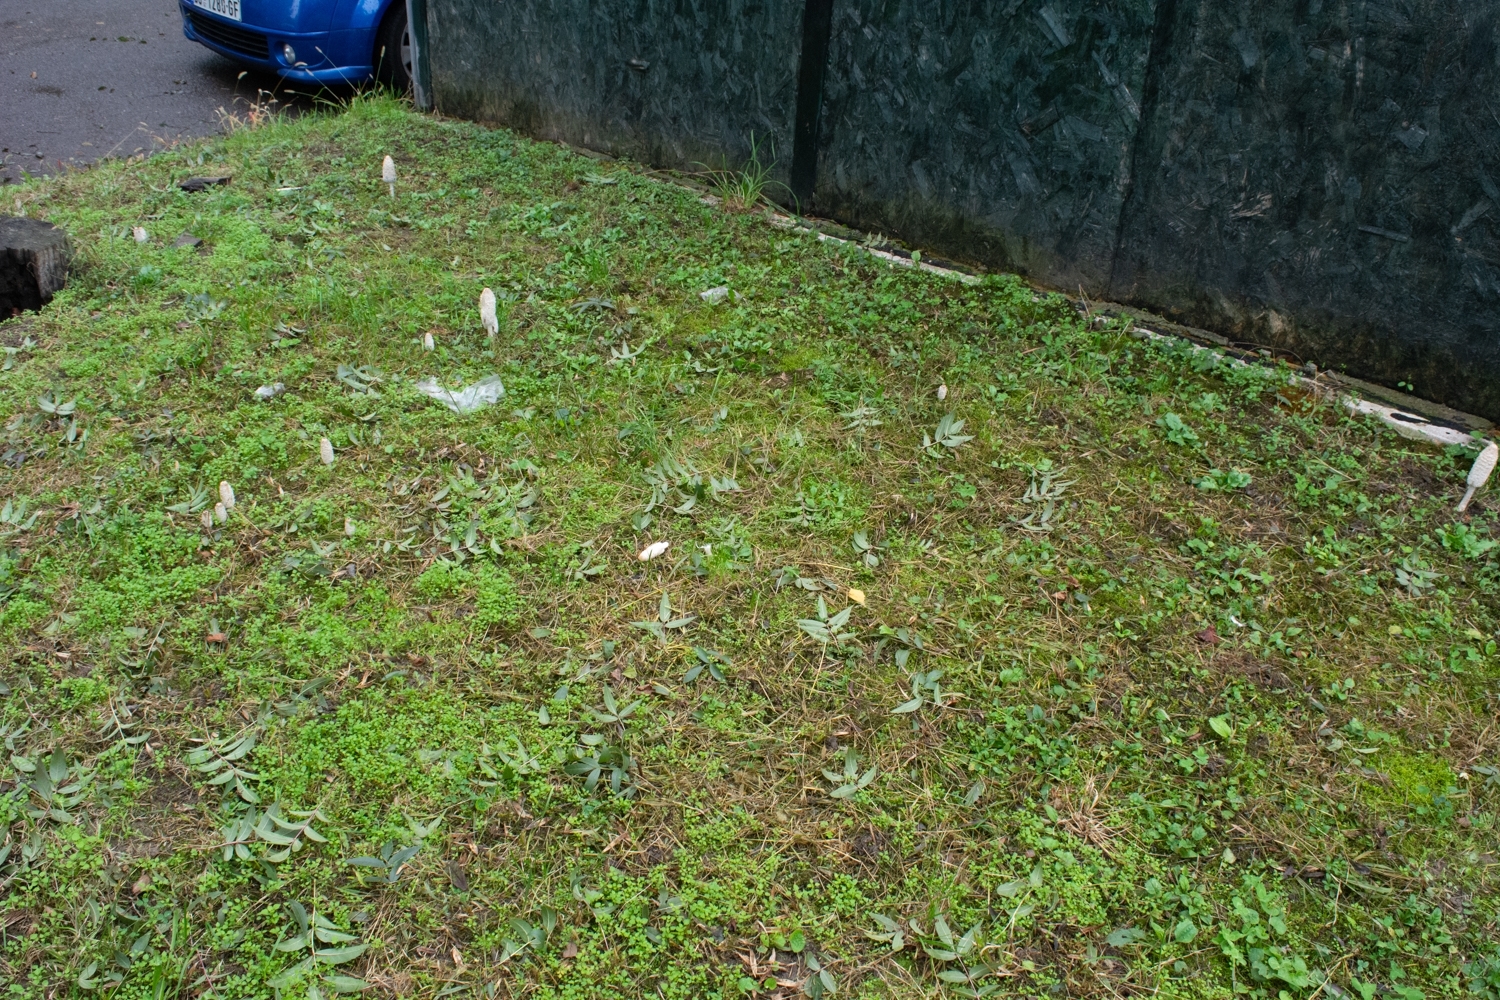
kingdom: Fungi
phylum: Basidiomycota
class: Agaricomycetes
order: Agaricales
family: Agaricaceae
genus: Coprinus
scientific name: Coprinus comatus
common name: Lawyer's wig
